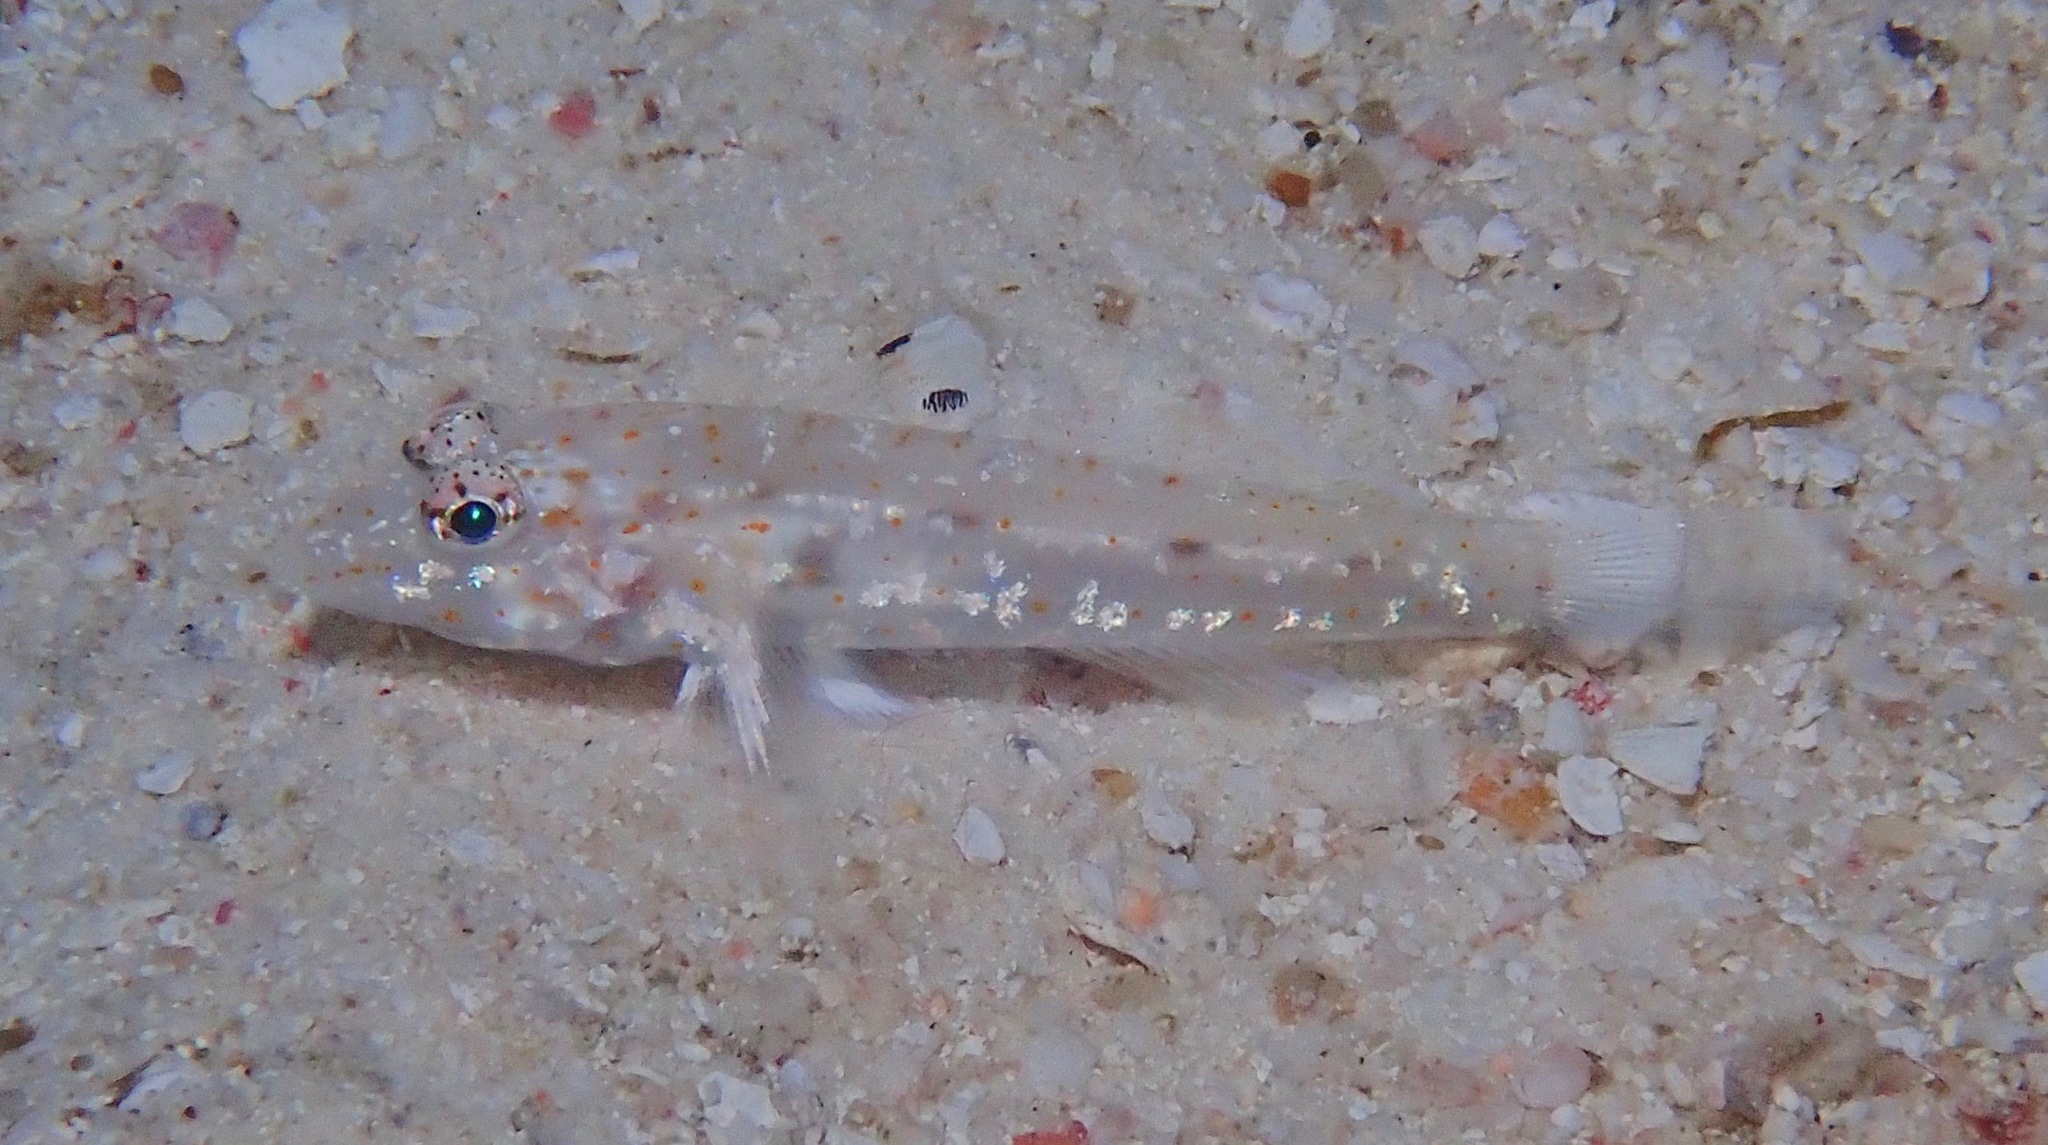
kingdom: Animalia
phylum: Chordata
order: Perciformes
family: Gobiidae
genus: Fusigobius
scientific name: Fusigobius duospilus
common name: Twospot goby
